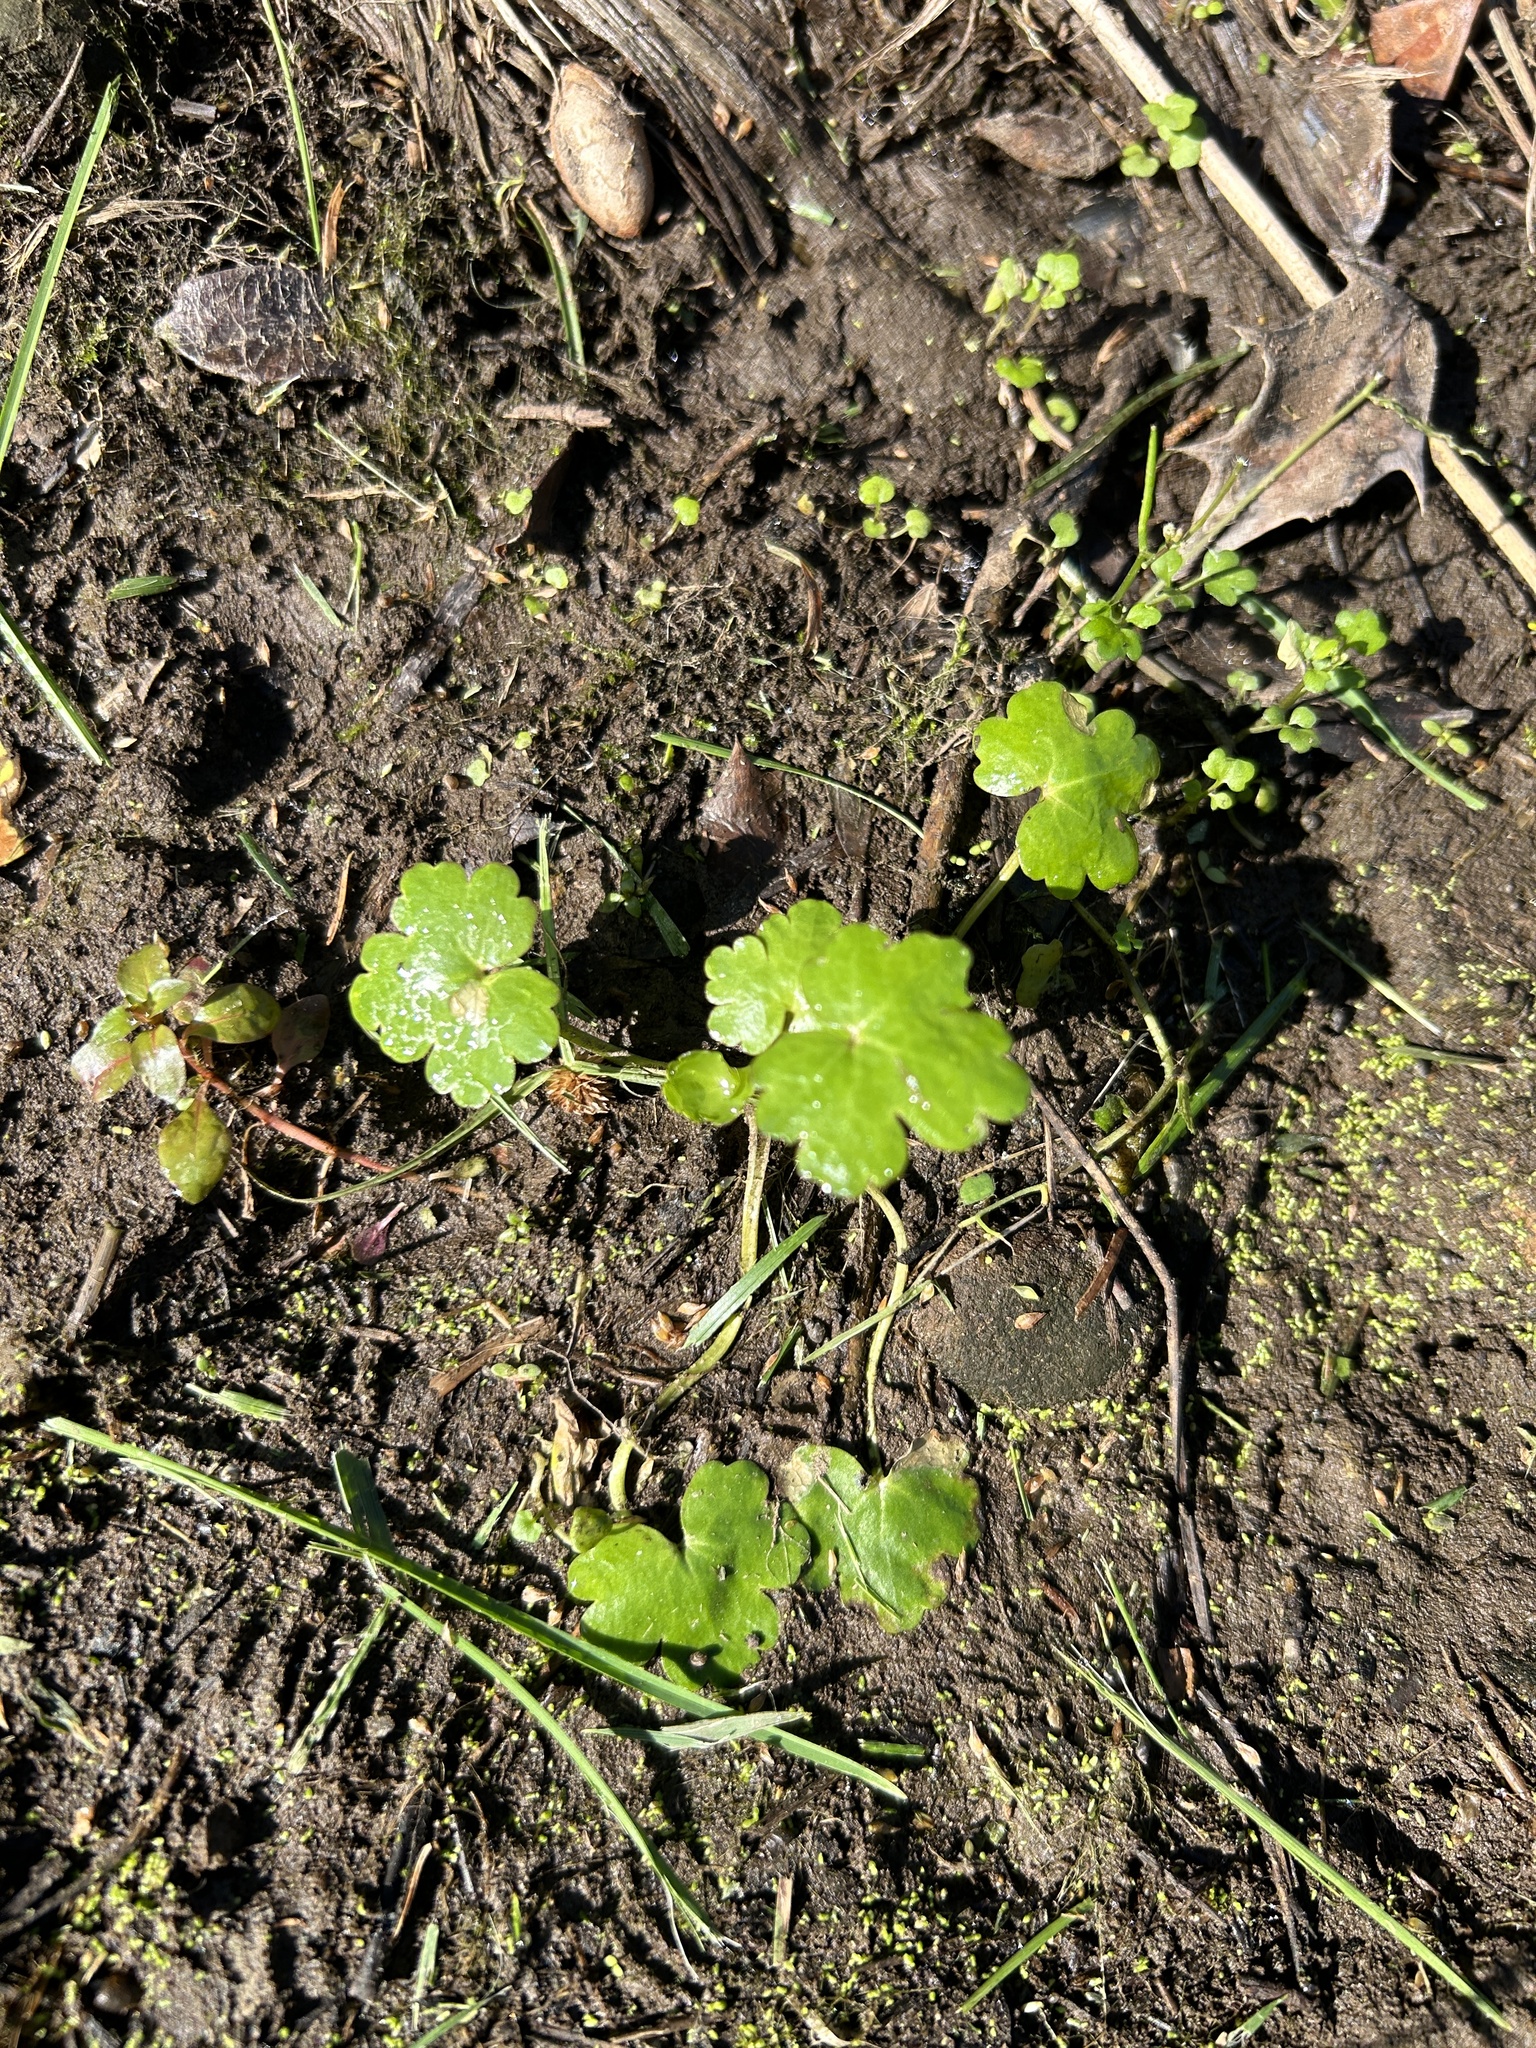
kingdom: Plantae
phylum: Tracheophyta
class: Magnoliopsida
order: Ranunculales
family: Ranunculaceae
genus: Ranunculus
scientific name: Ranunculus sceleratus
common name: Celery-leaved buttercup
